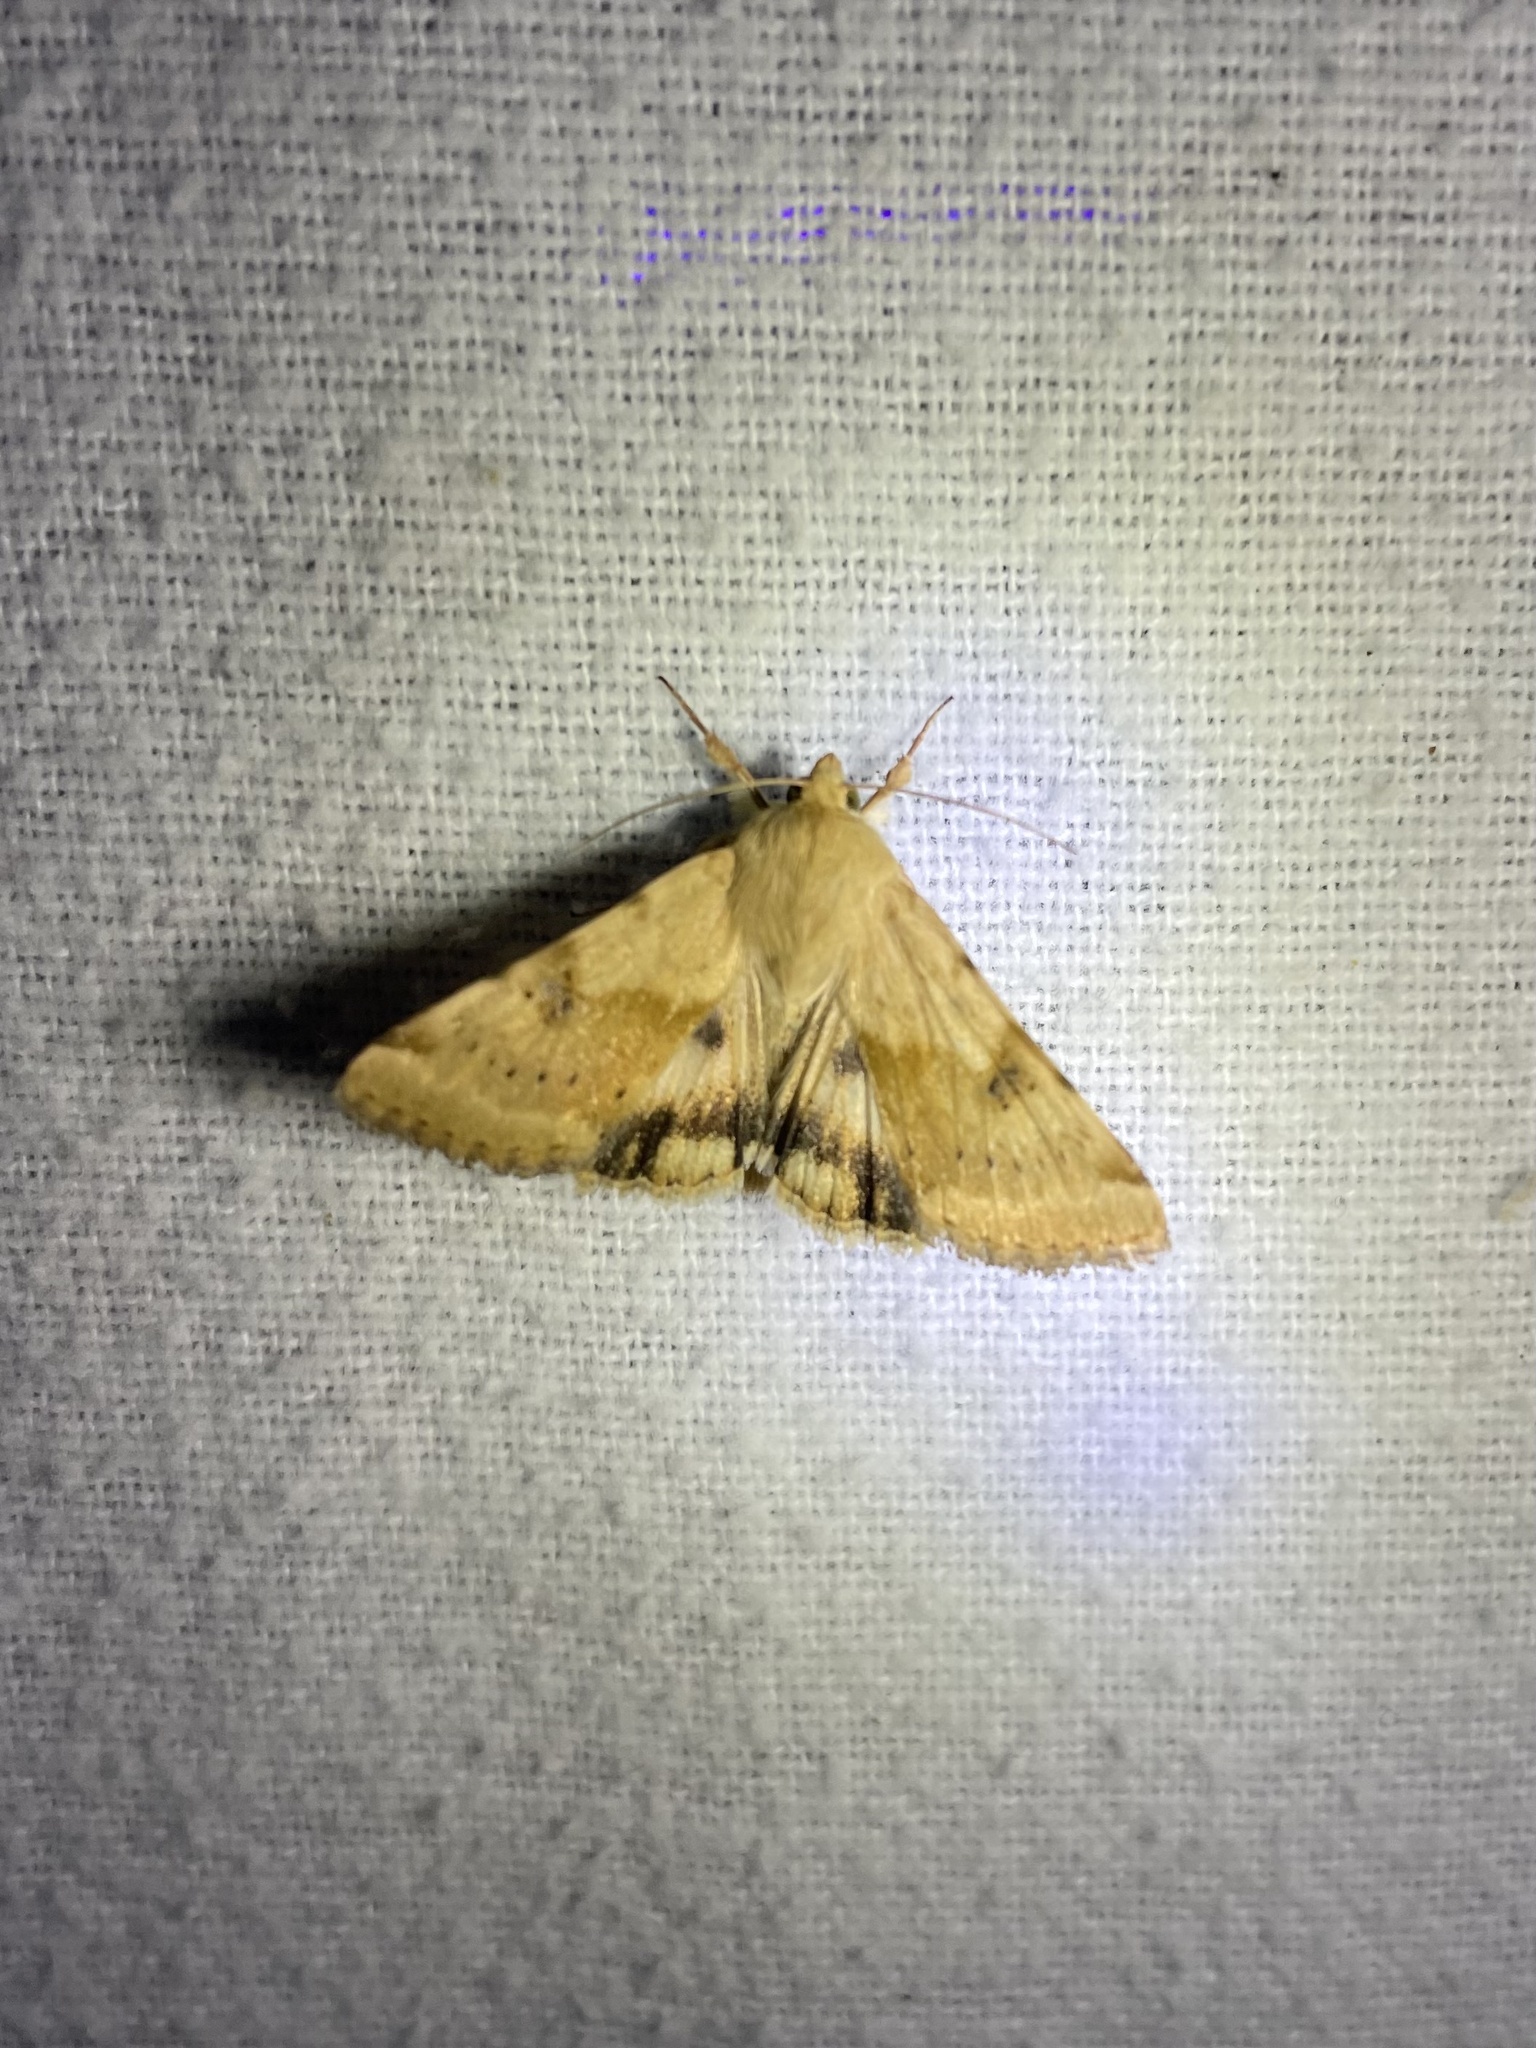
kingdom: Animalia
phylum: Arthropoda
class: Insecta
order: Lepidoptera
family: Noctuidae
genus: Heliothis
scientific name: Heliothis phloxiphaga
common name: Darker spotted straw moth
